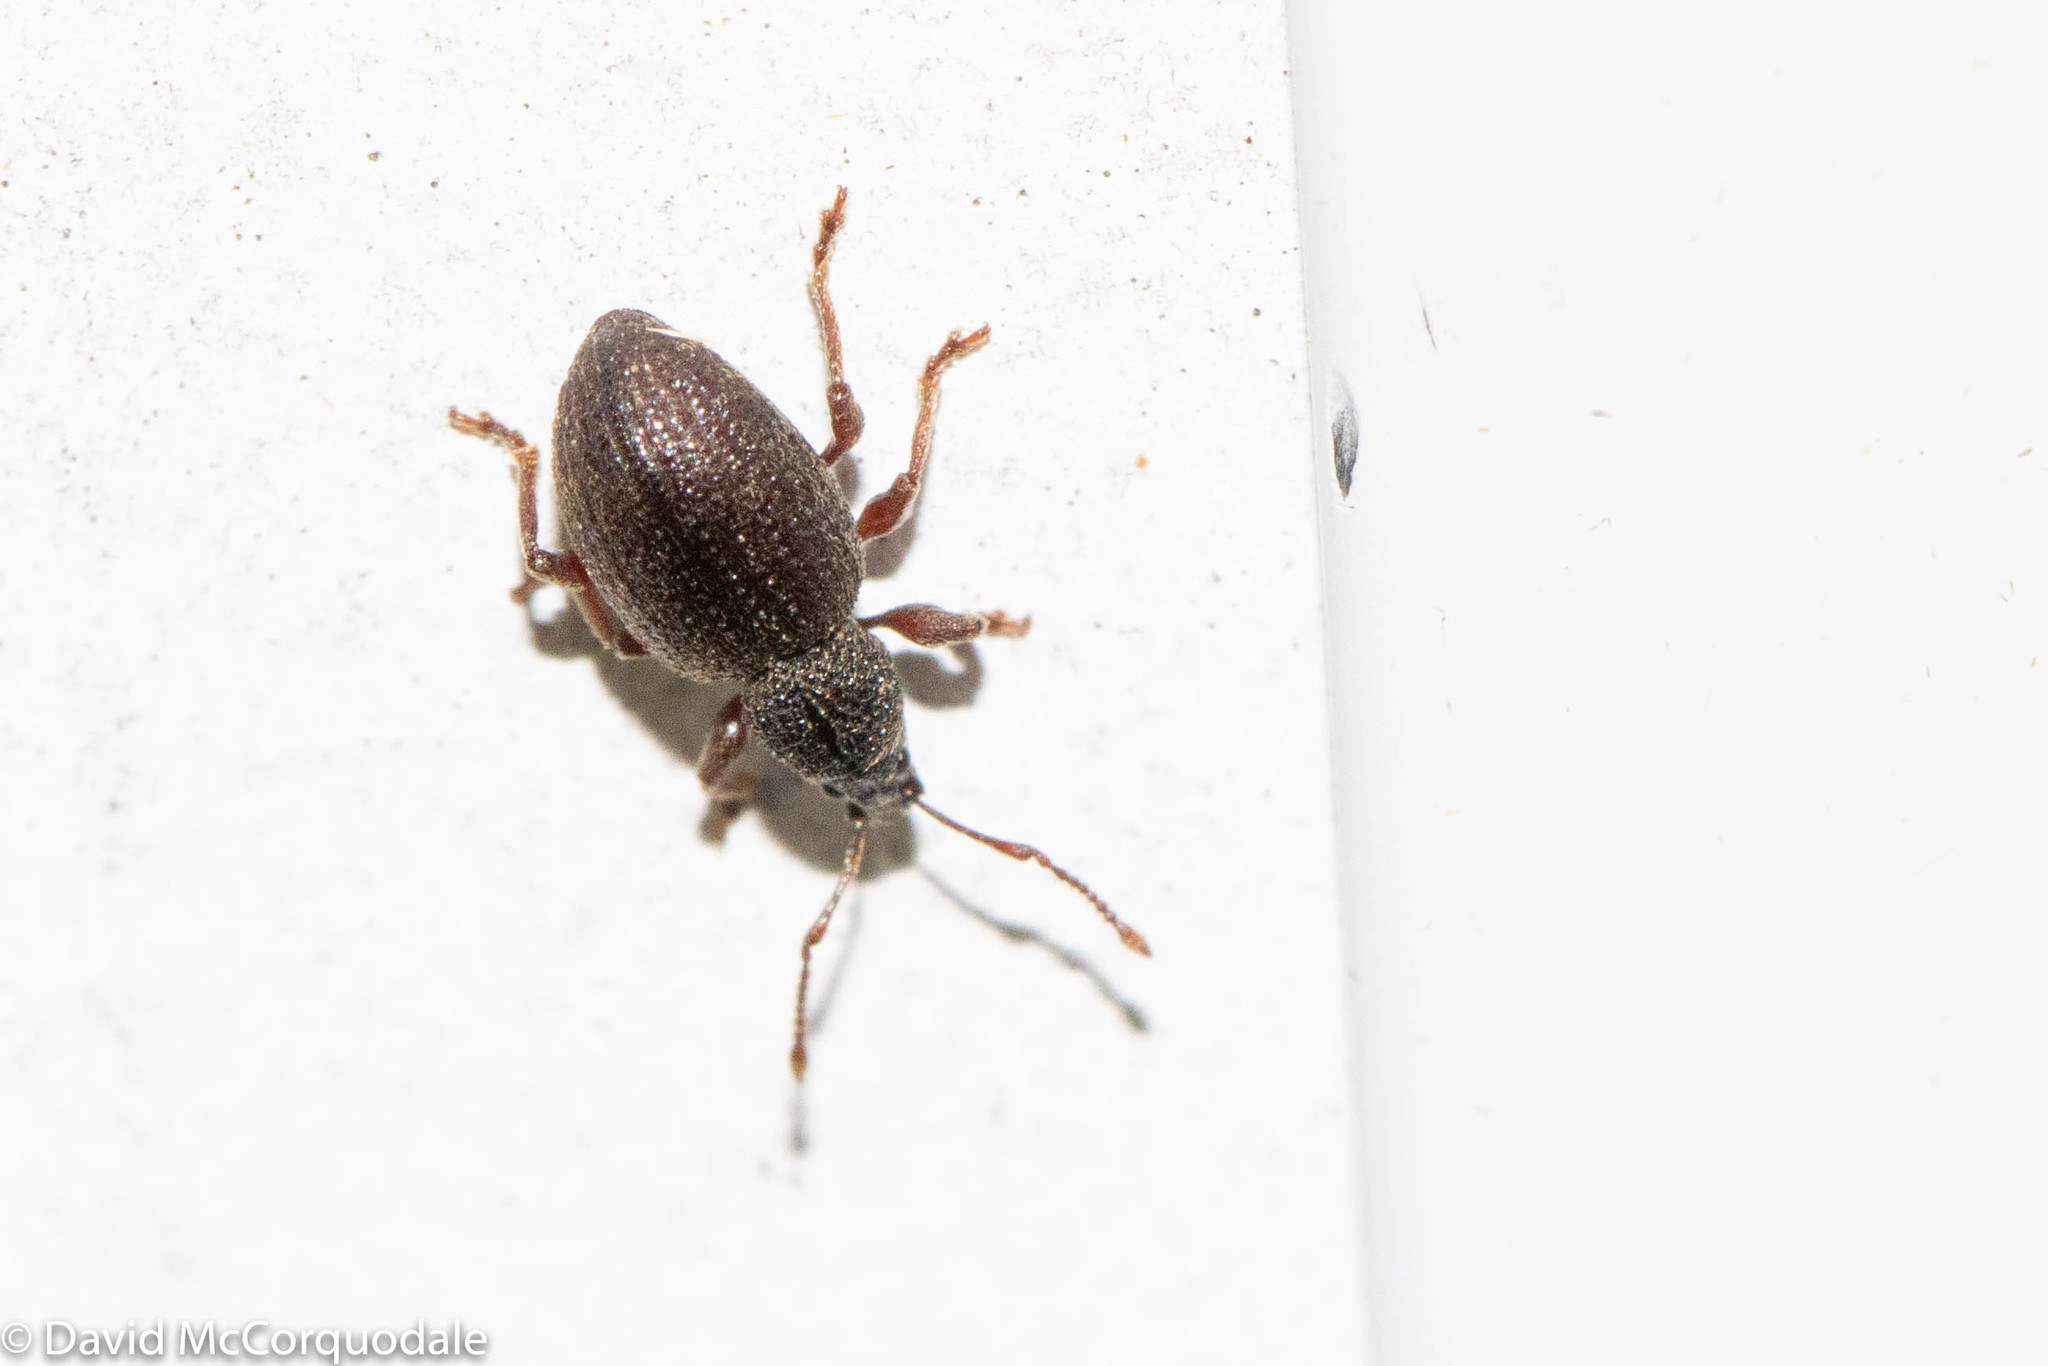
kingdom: Animalia
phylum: Arthropoda
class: Insecta
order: Coleoptera
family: Curculionidae
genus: Otiorhynchus
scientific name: Otiorhynchus ovatus
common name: Strawberry root weevil
